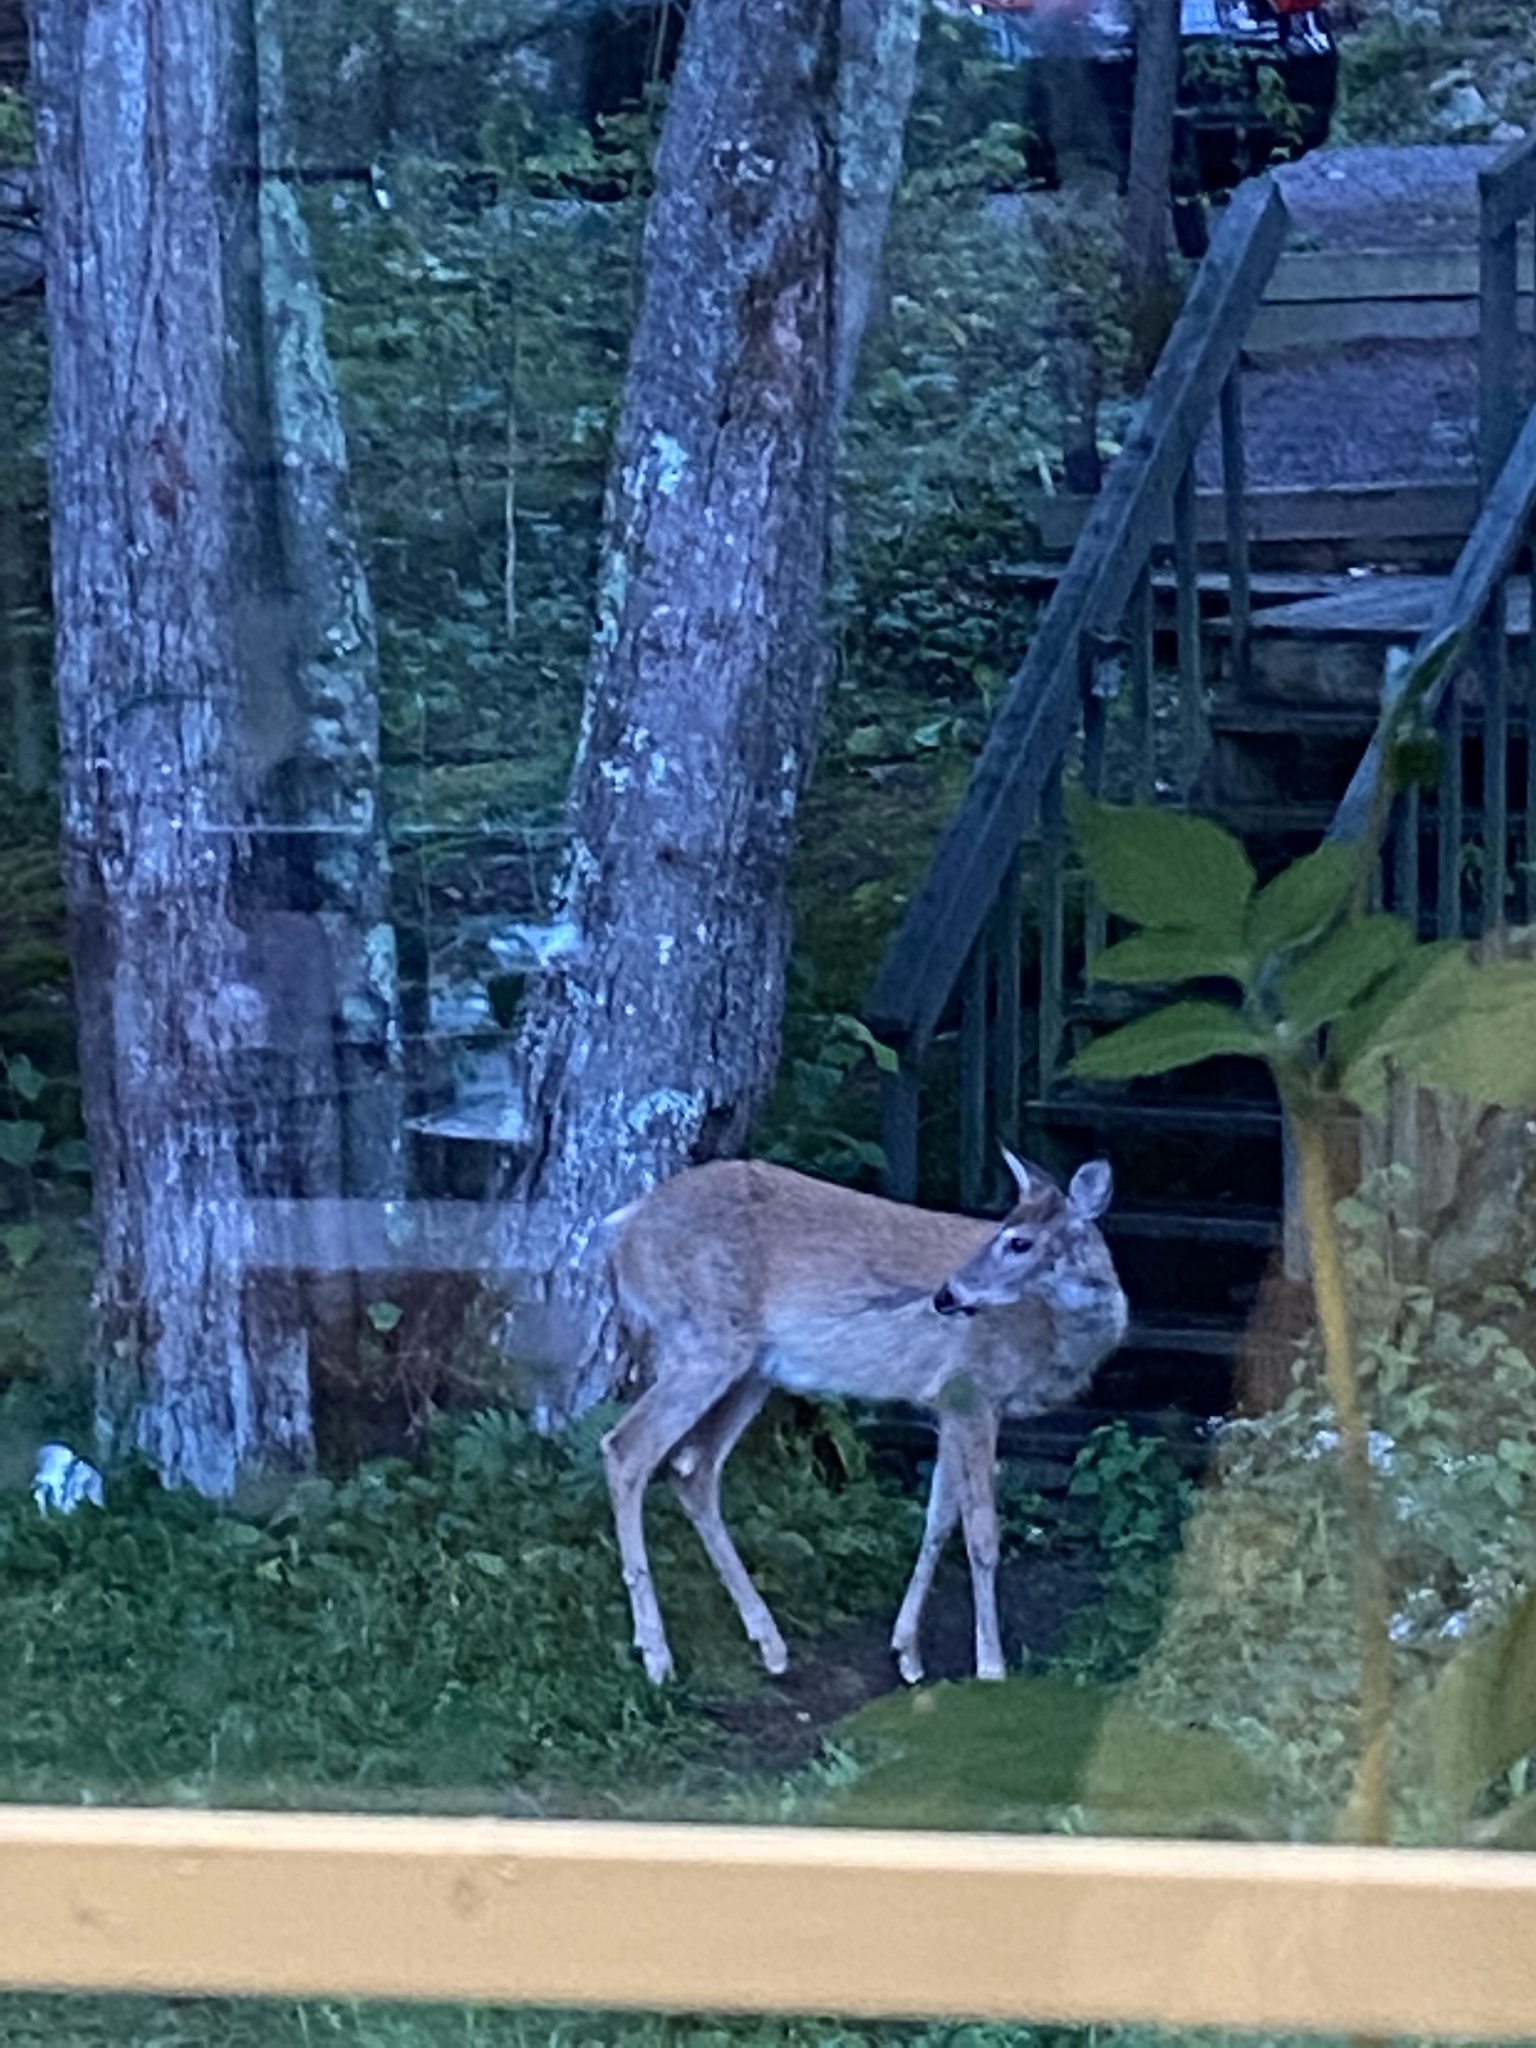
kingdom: Animalia
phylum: Chordata
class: Mammalia
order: Artiodactyla
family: Cervidae
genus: Odocoileus
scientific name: Odocoileus virginianus
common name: White-tailed deer
